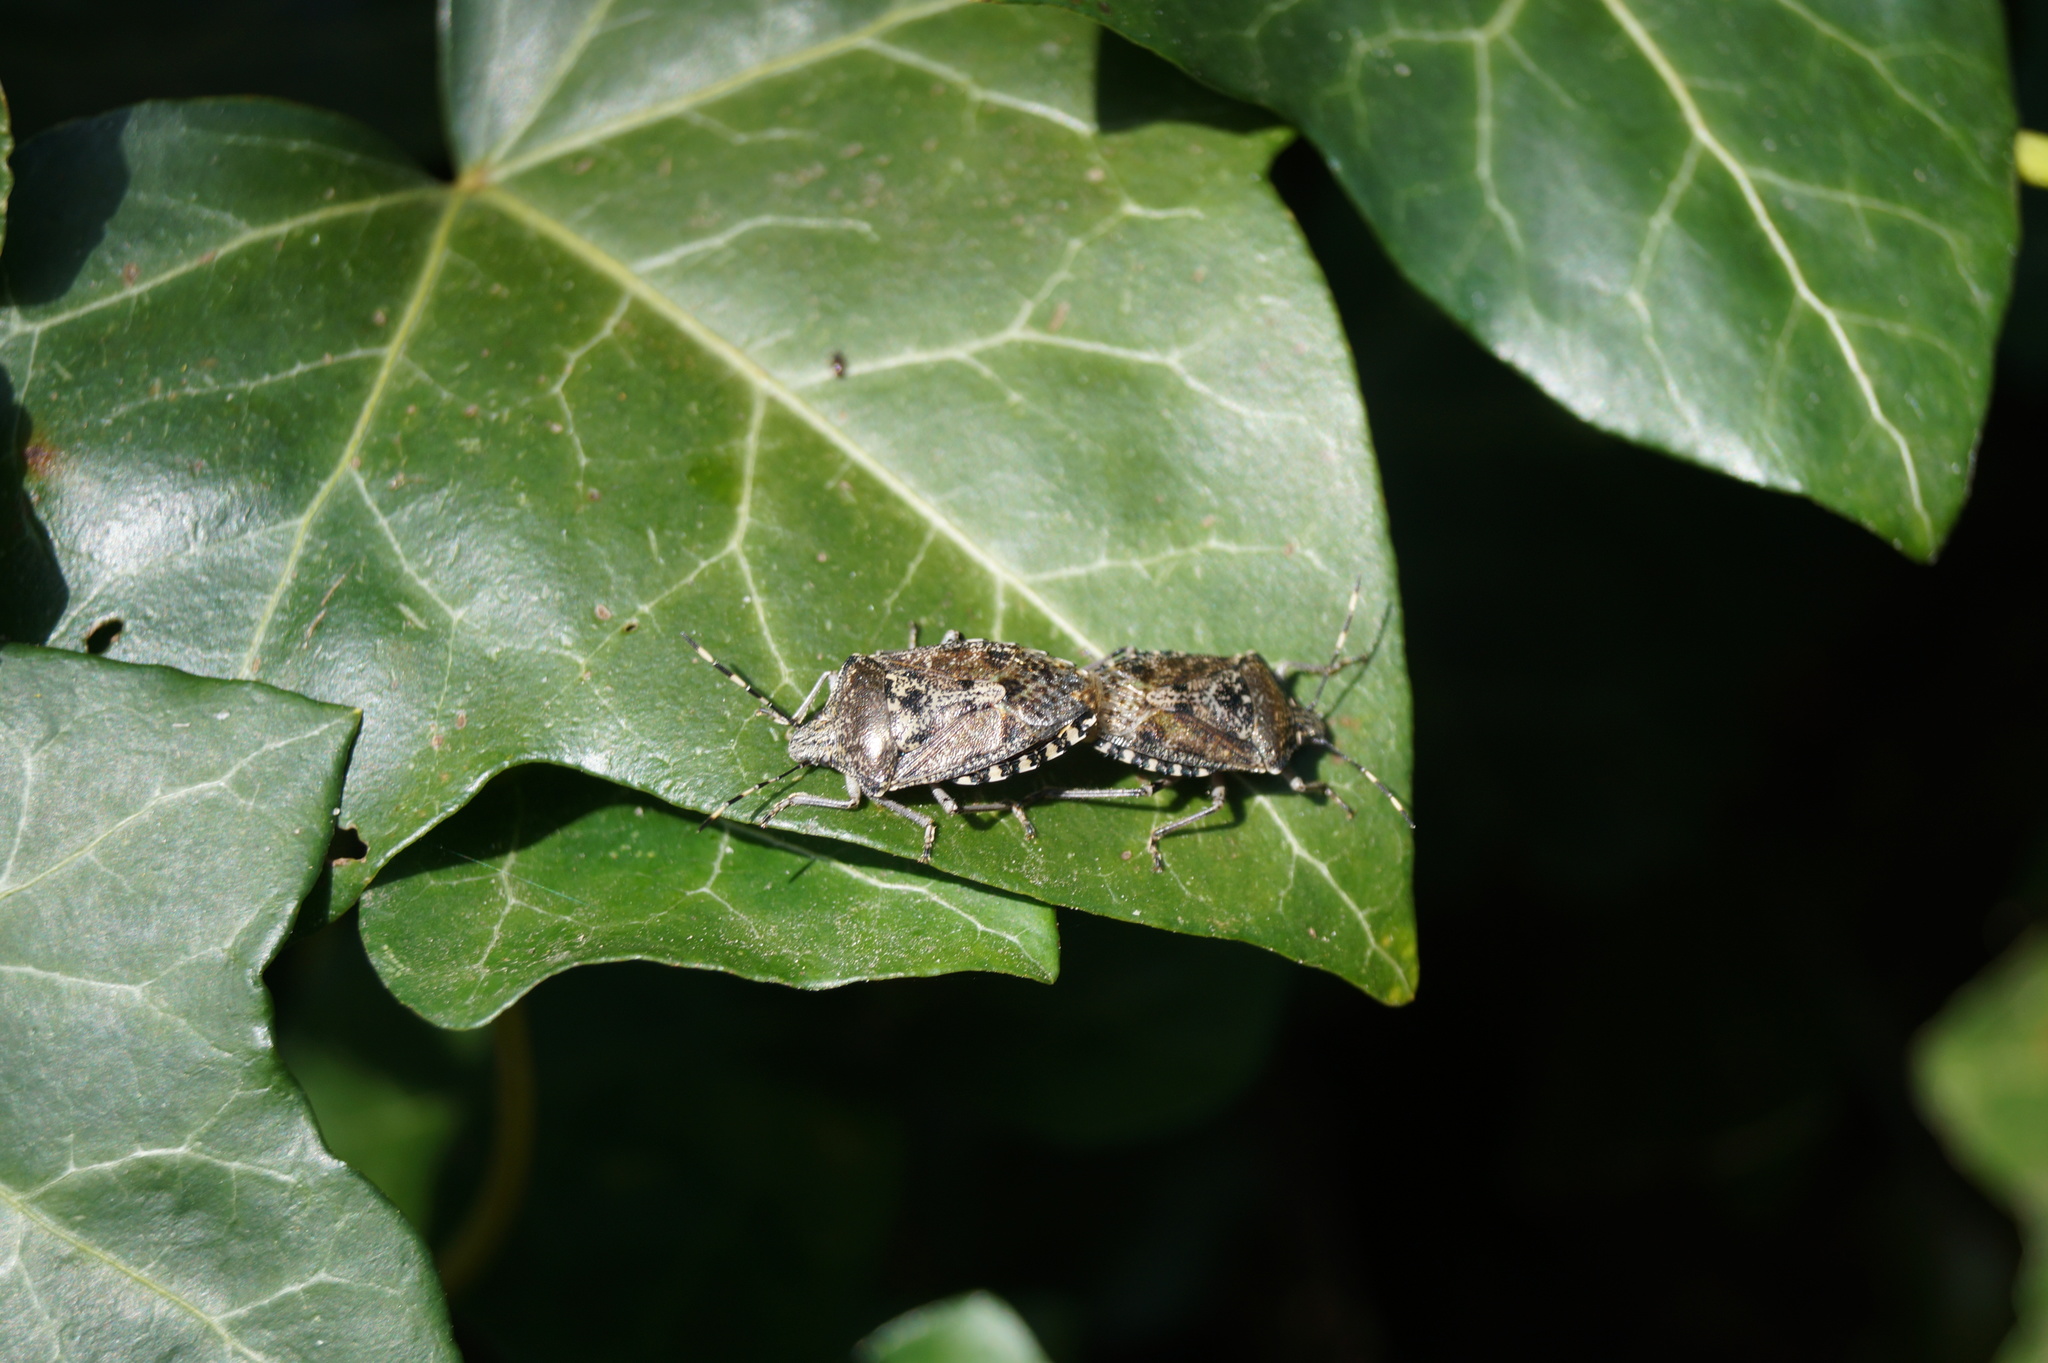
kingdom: Animalia
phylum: Arthropoda
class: Insecta
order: Hemiptera
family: Pentatomidae
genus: Rhaphigaster
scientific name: Rhaphigaster nebulosa
